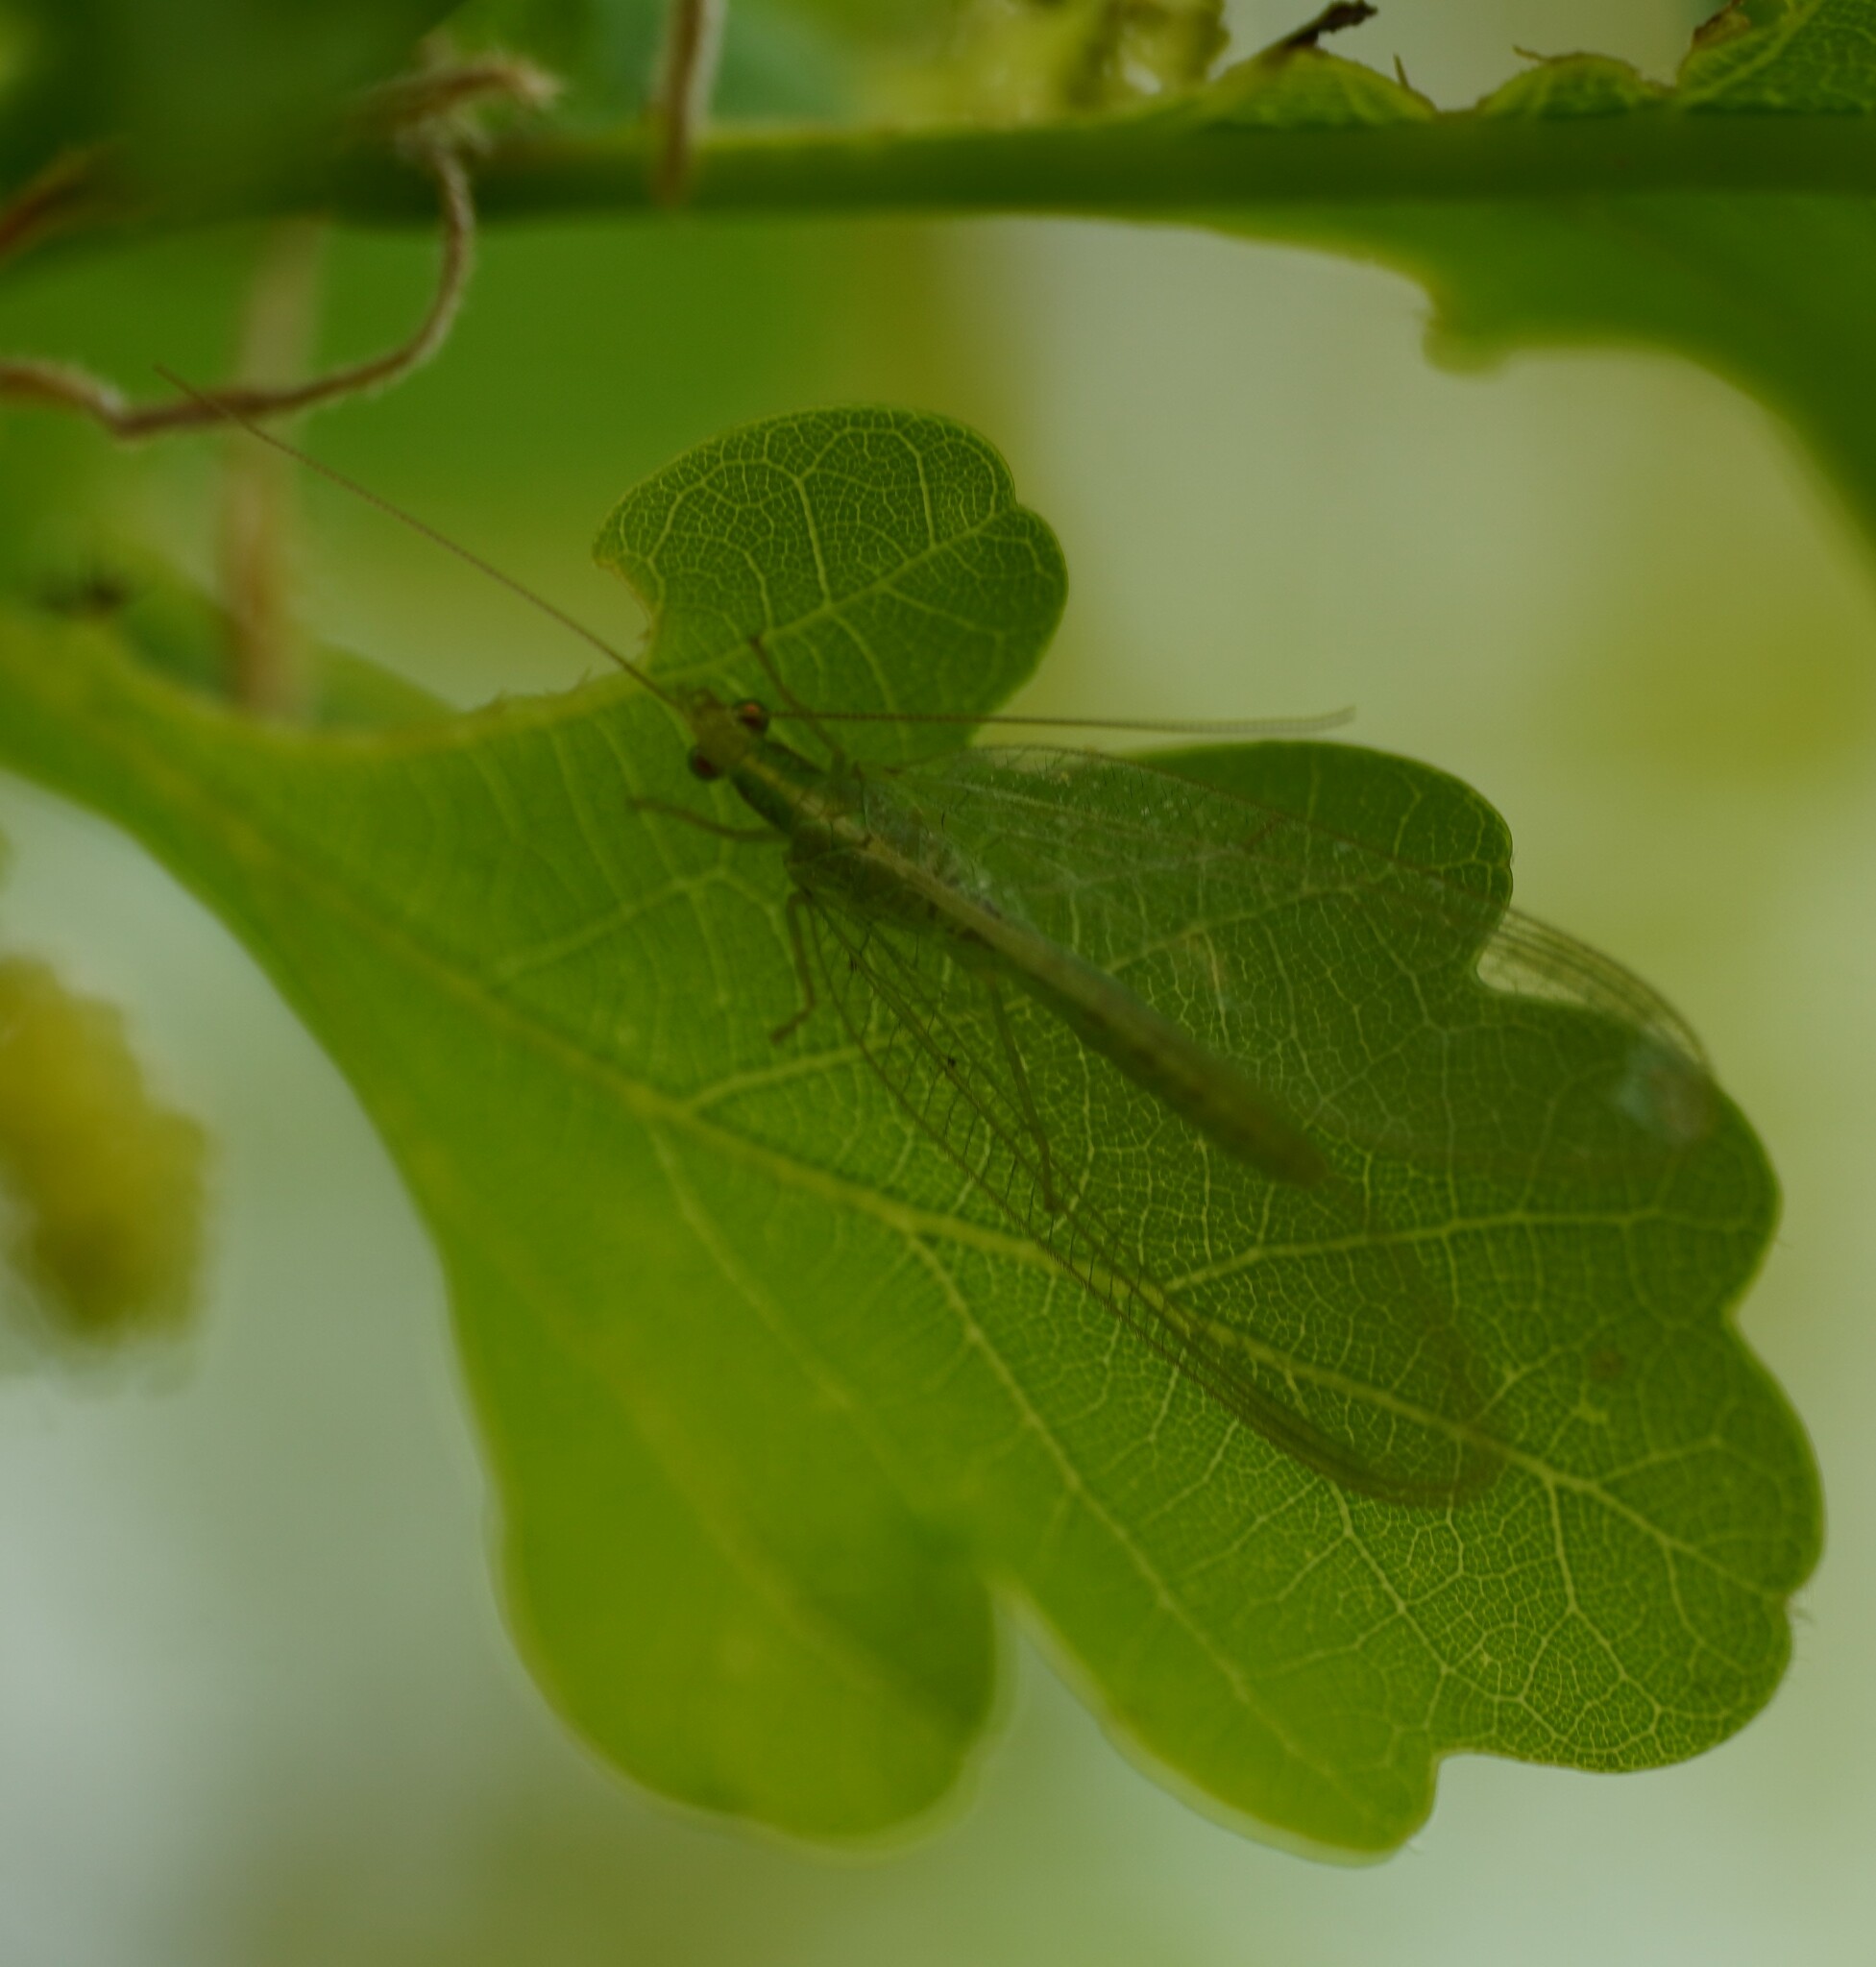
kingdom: Animalia
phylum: Arthropoda
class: Insecta
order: Neuroptera
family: Chrysopidae
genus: Chrysoperla
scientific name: Chrysoperla
